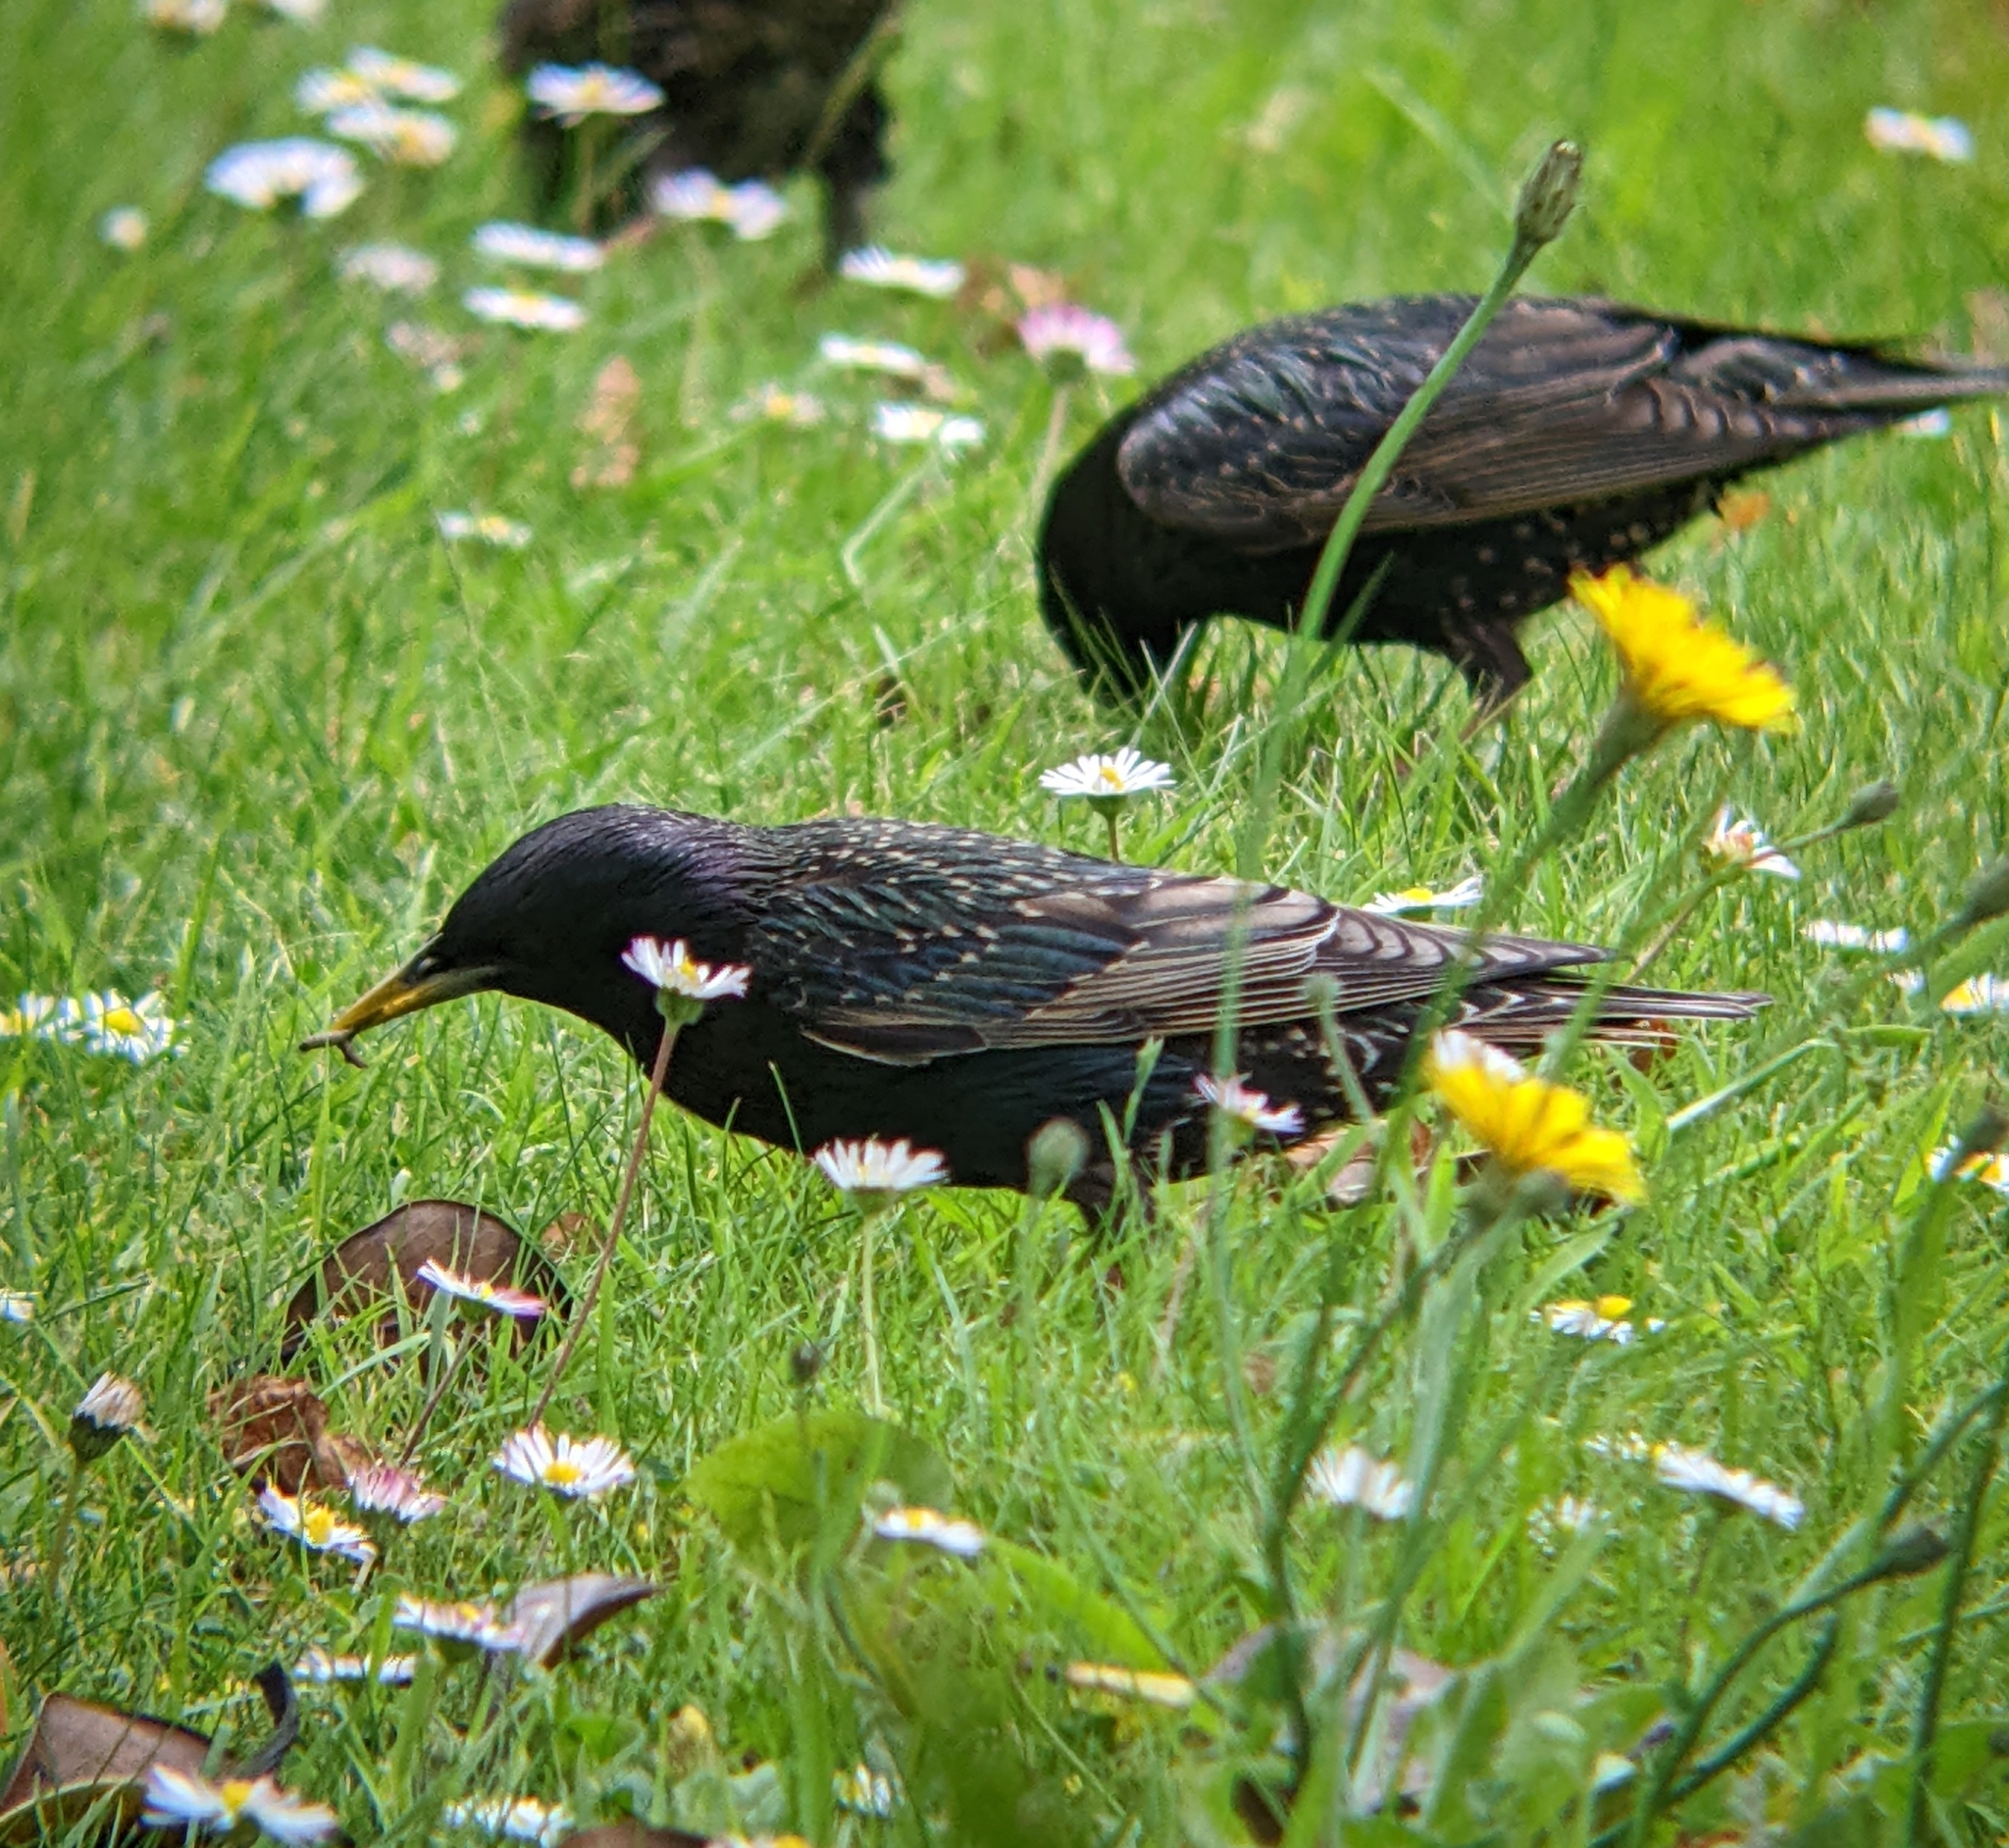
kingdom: Animalia
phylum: Chordata
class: Aves
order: Passeriformes
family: Sturnidae
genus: Sturnus
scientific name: Sturnus vulgaris
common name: Common starling
